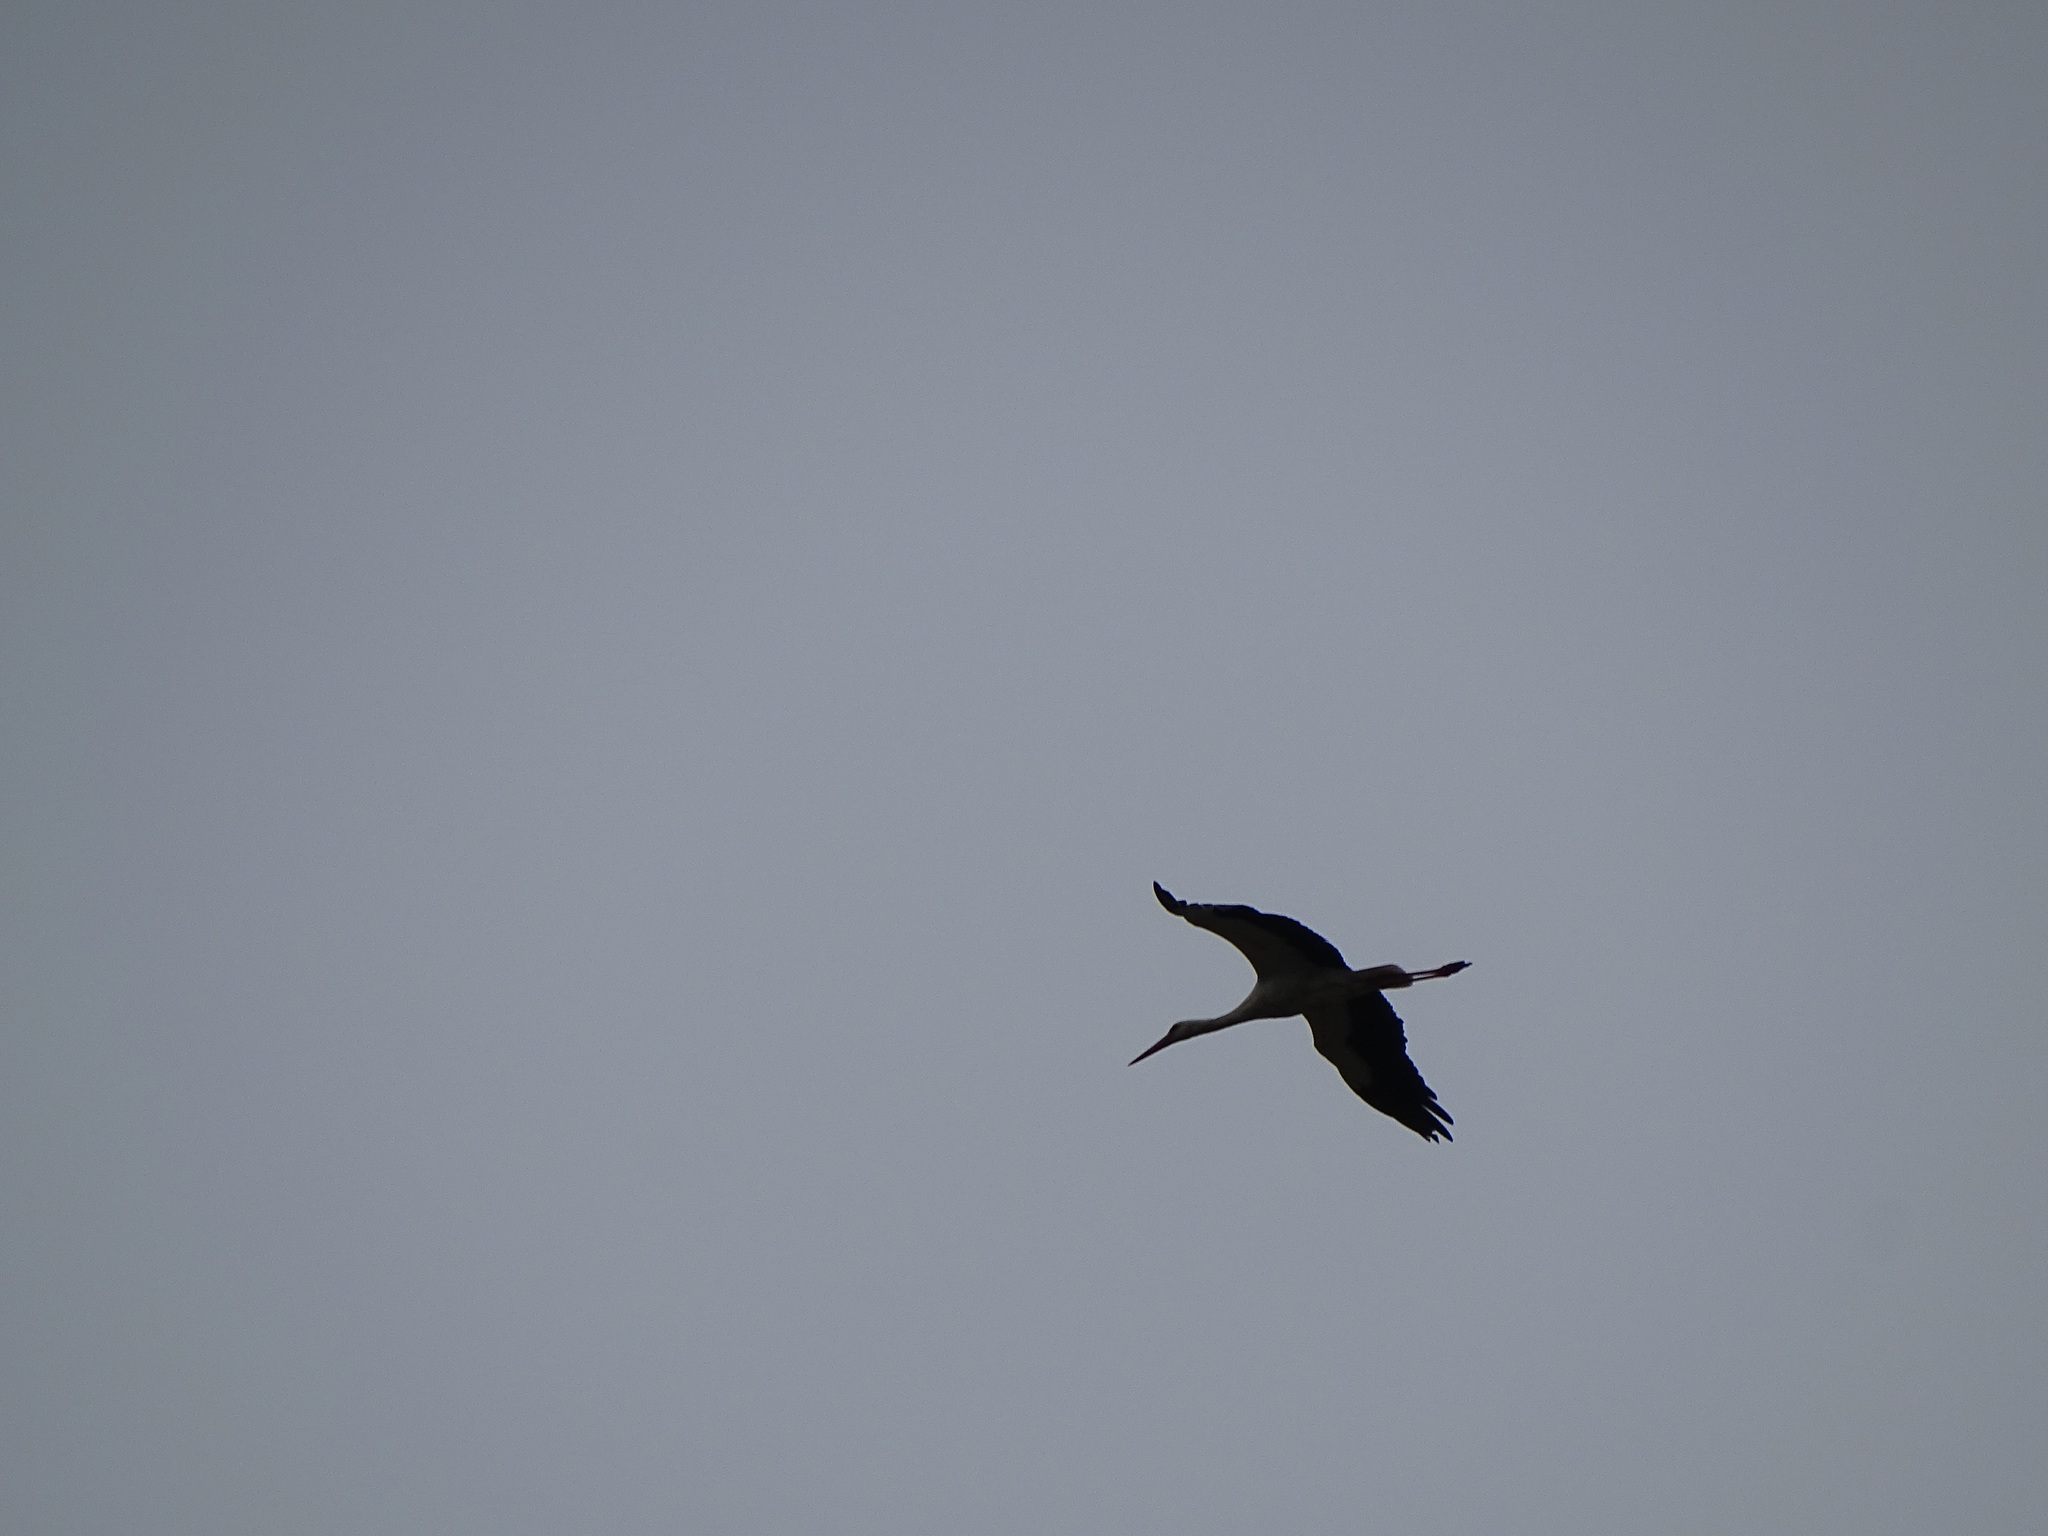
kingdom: Animalia
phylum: Chordata
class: Aves
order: Ciconiiformes
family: Ciconiidae
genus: Ciconia
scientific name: Ciconia ciconia
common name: White stork
